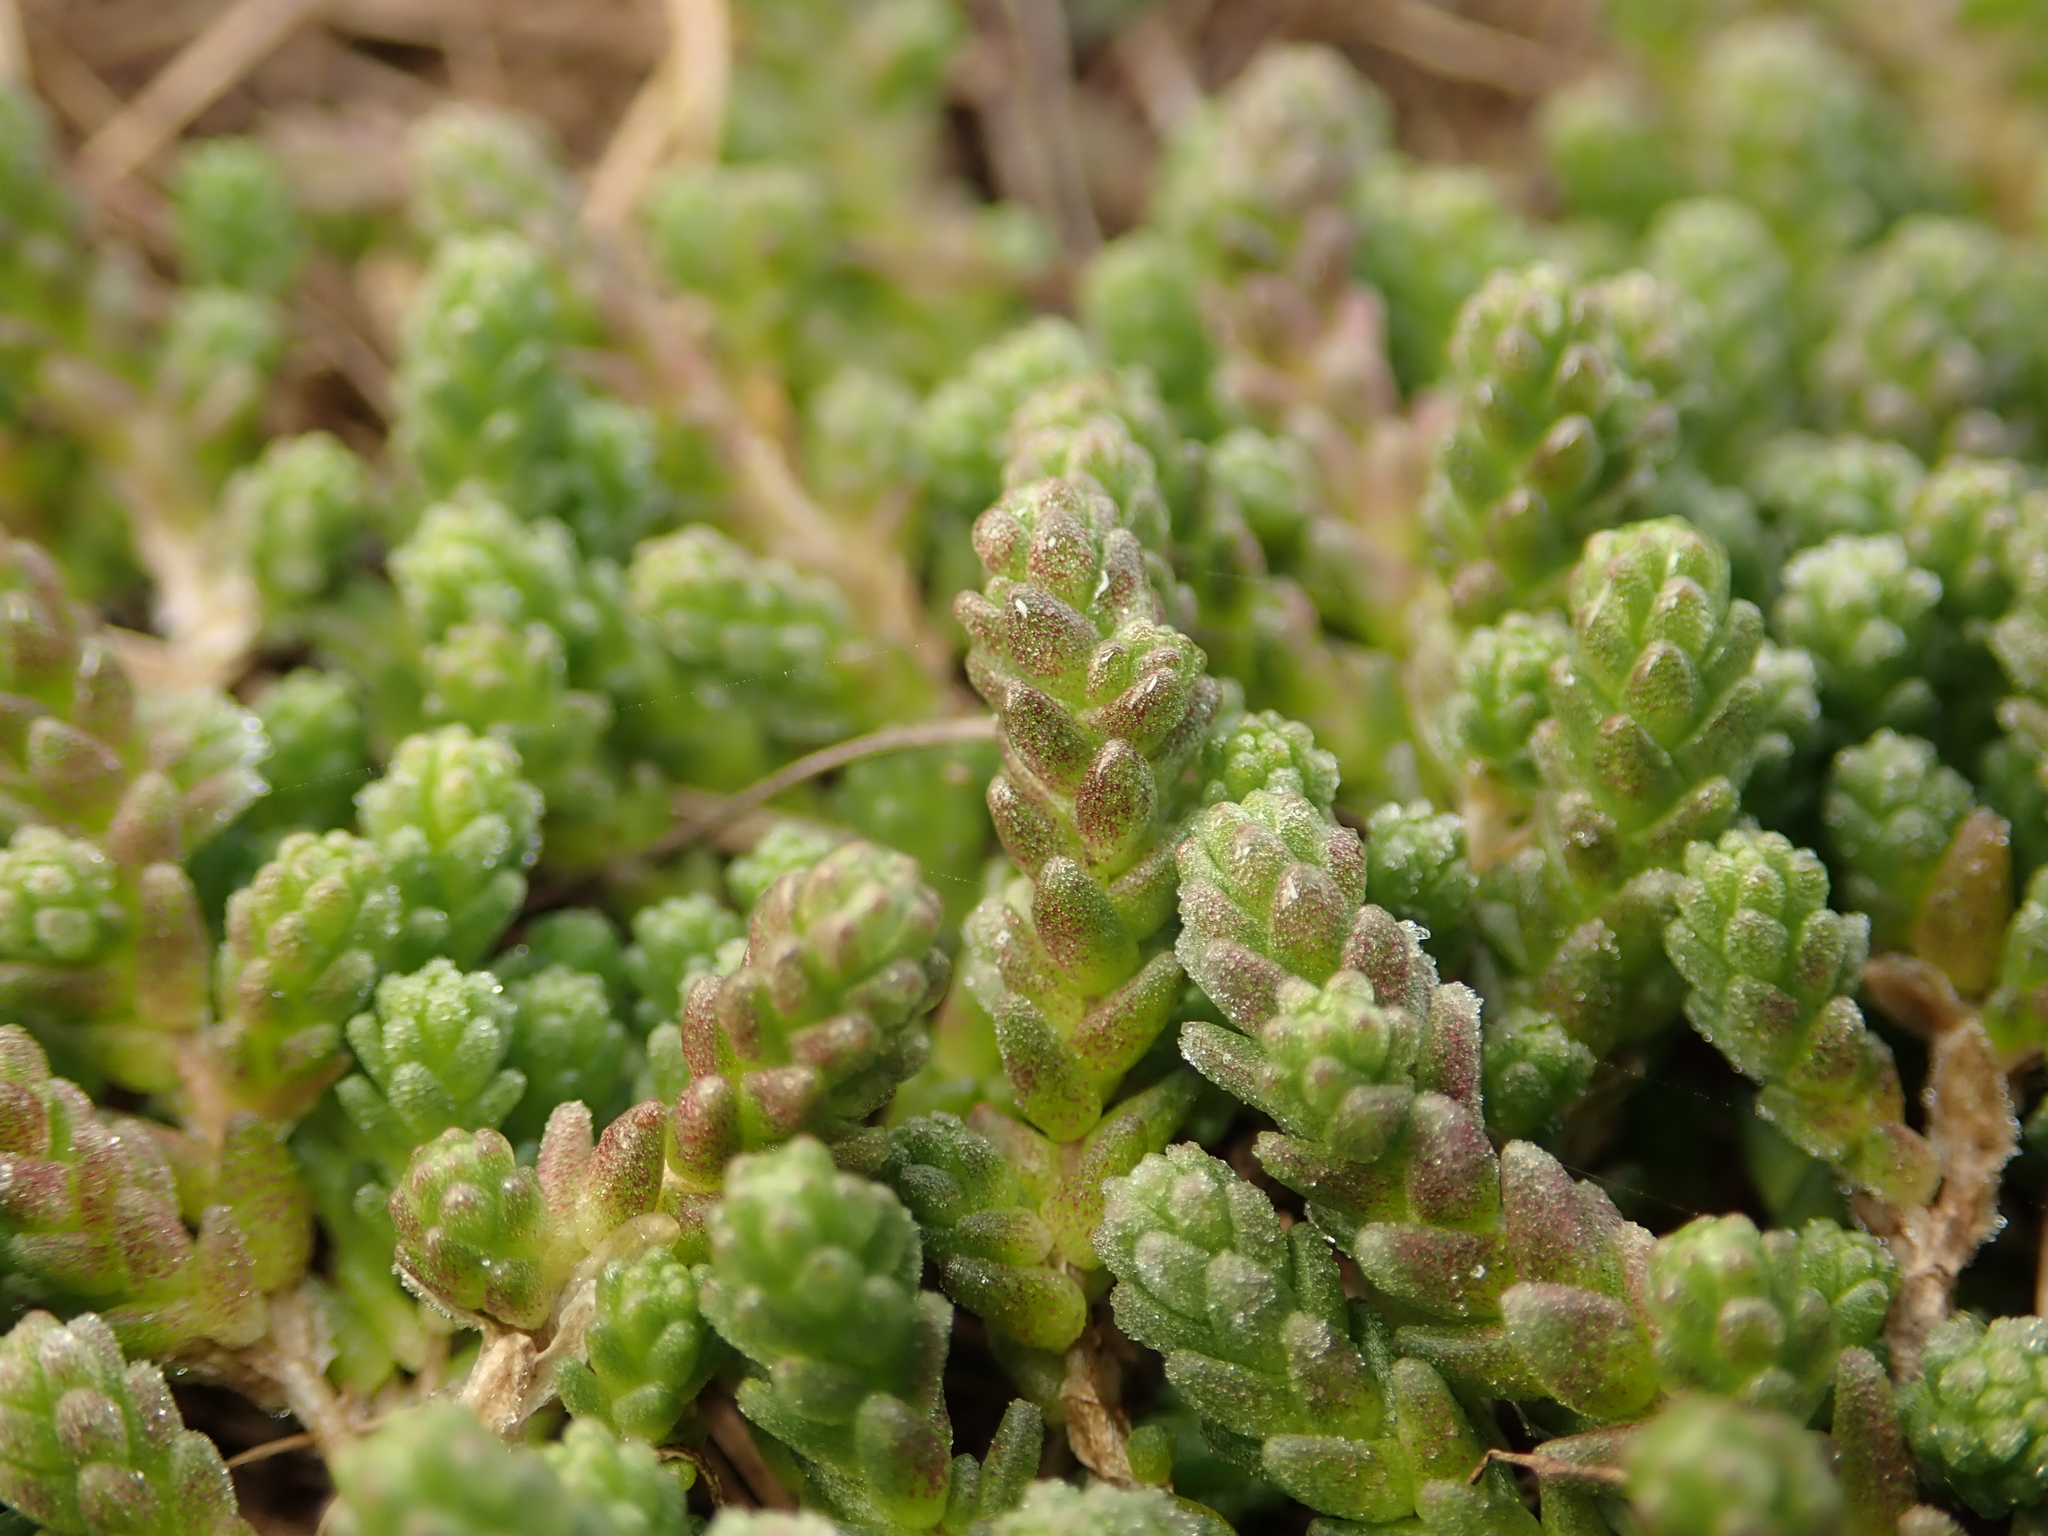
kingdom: Plantae
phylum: Tracheophyta
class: Magnoliopsida
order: Saxifragales
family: Crassulaceae
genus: Sedum
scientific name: Sedum acre
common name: Biting stonecrop
